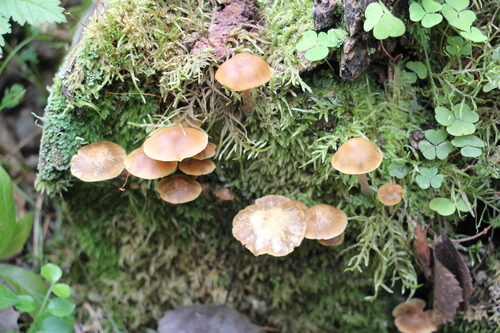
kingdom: Fungi
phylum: Basidiomycota
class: Agaricomycetes
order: Agaricales
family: Strophariaceae
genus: Pholiota
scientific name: Pholiota lignicola
